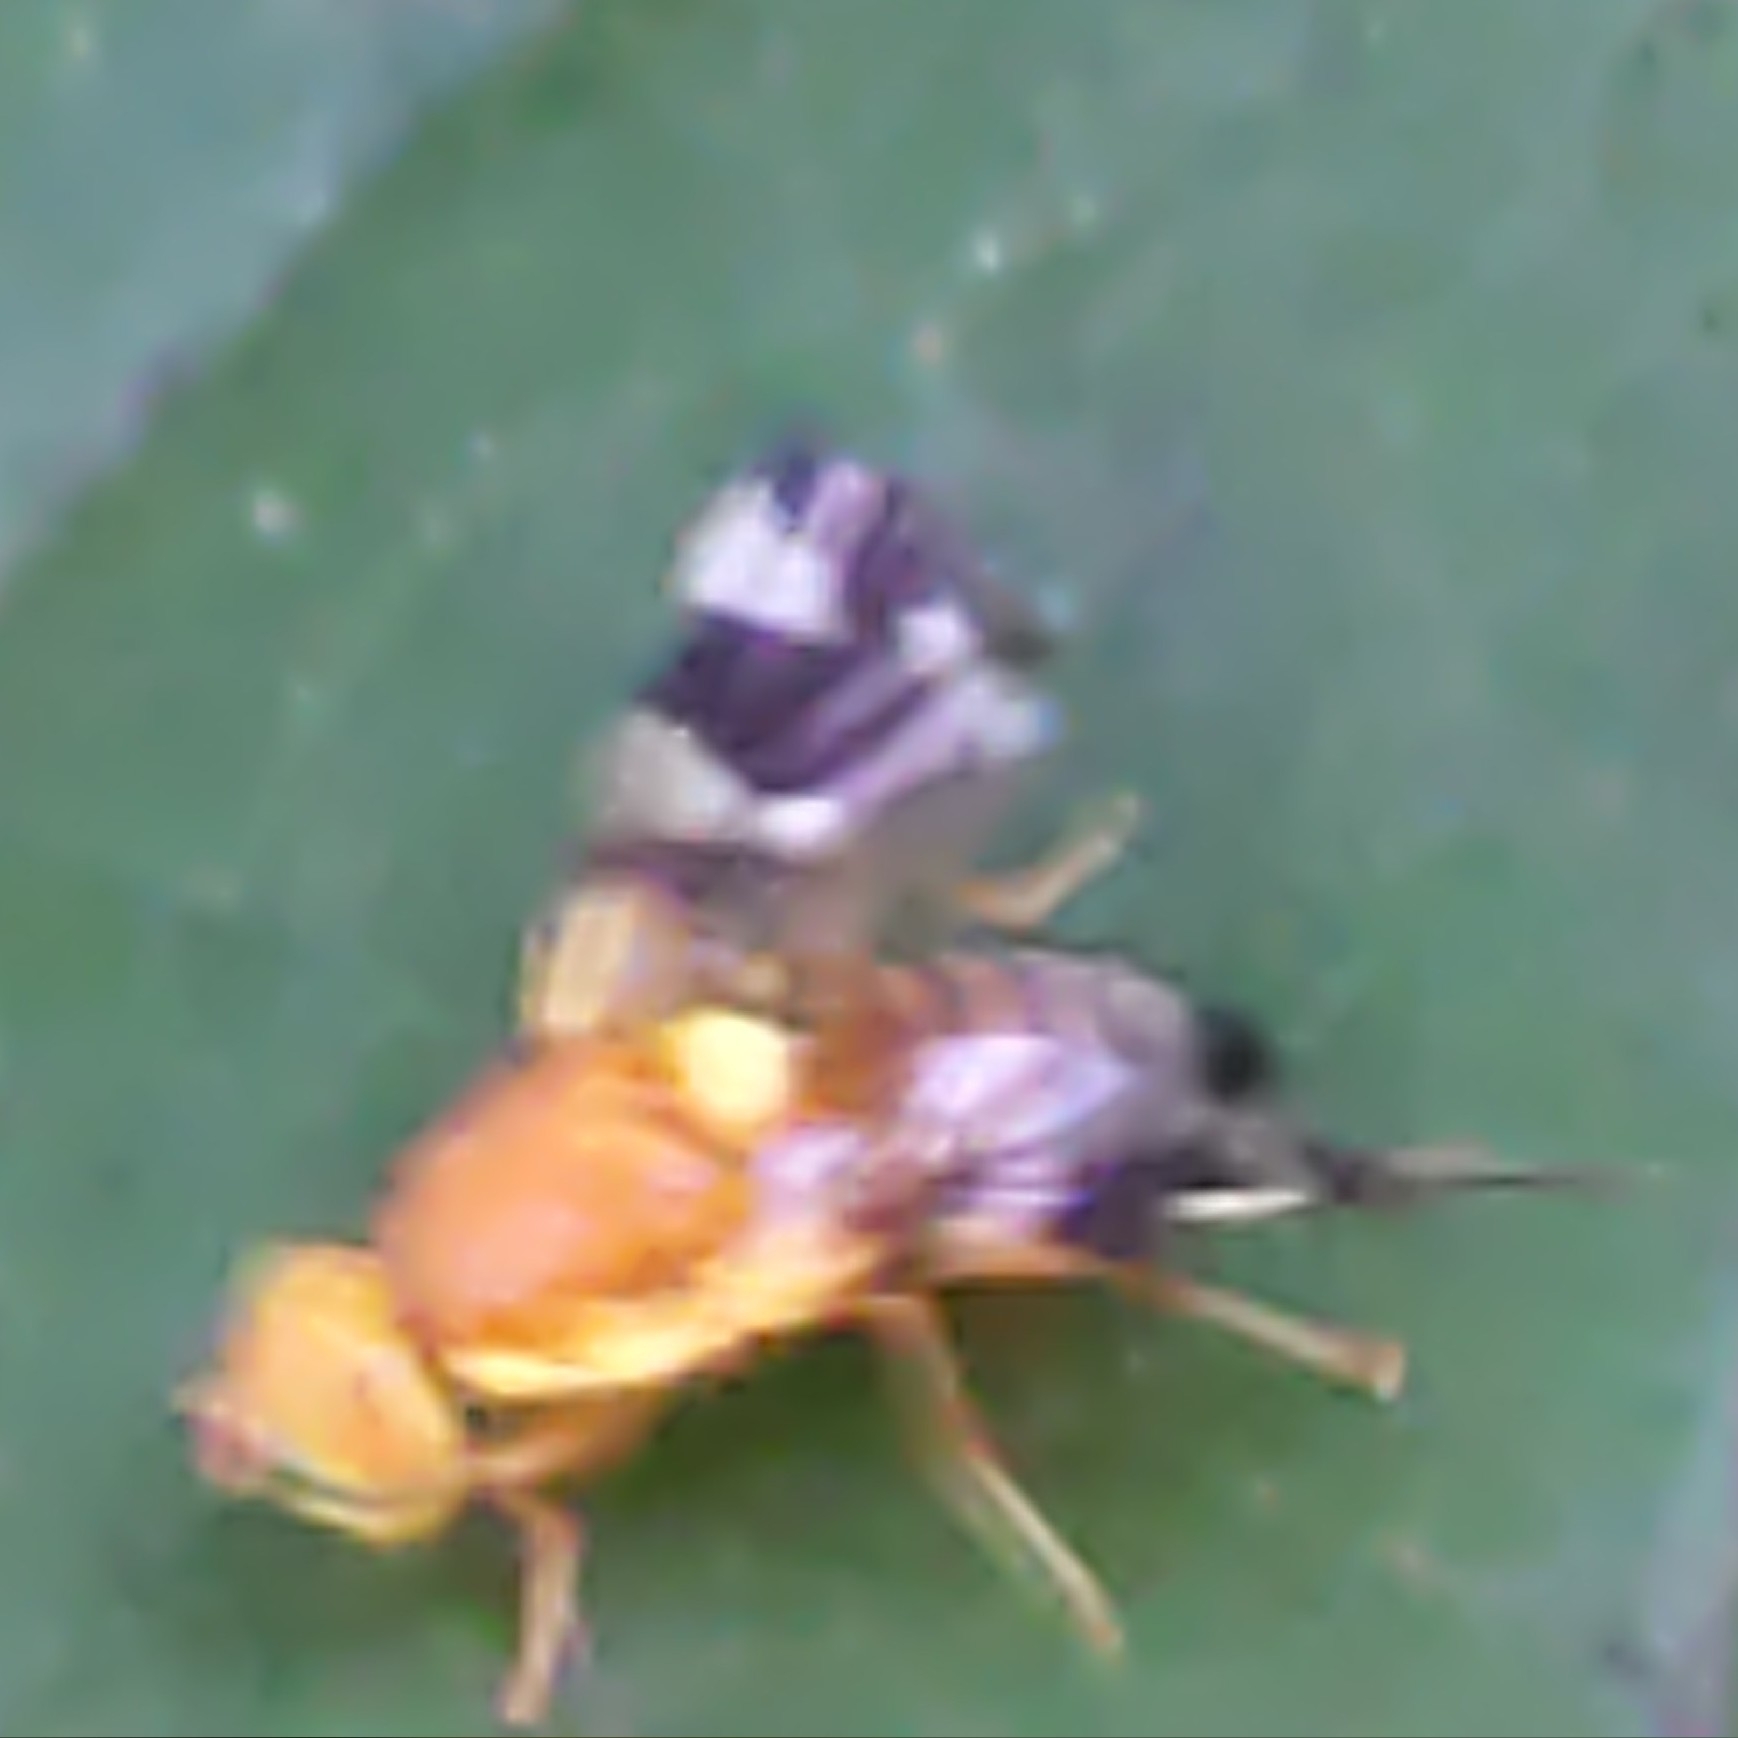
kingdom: Animalia
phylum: Arthropoda
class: Insecta
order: Diptera
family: Tephritidae
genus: Rhagoletis
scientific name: Rhagoletis suavis
